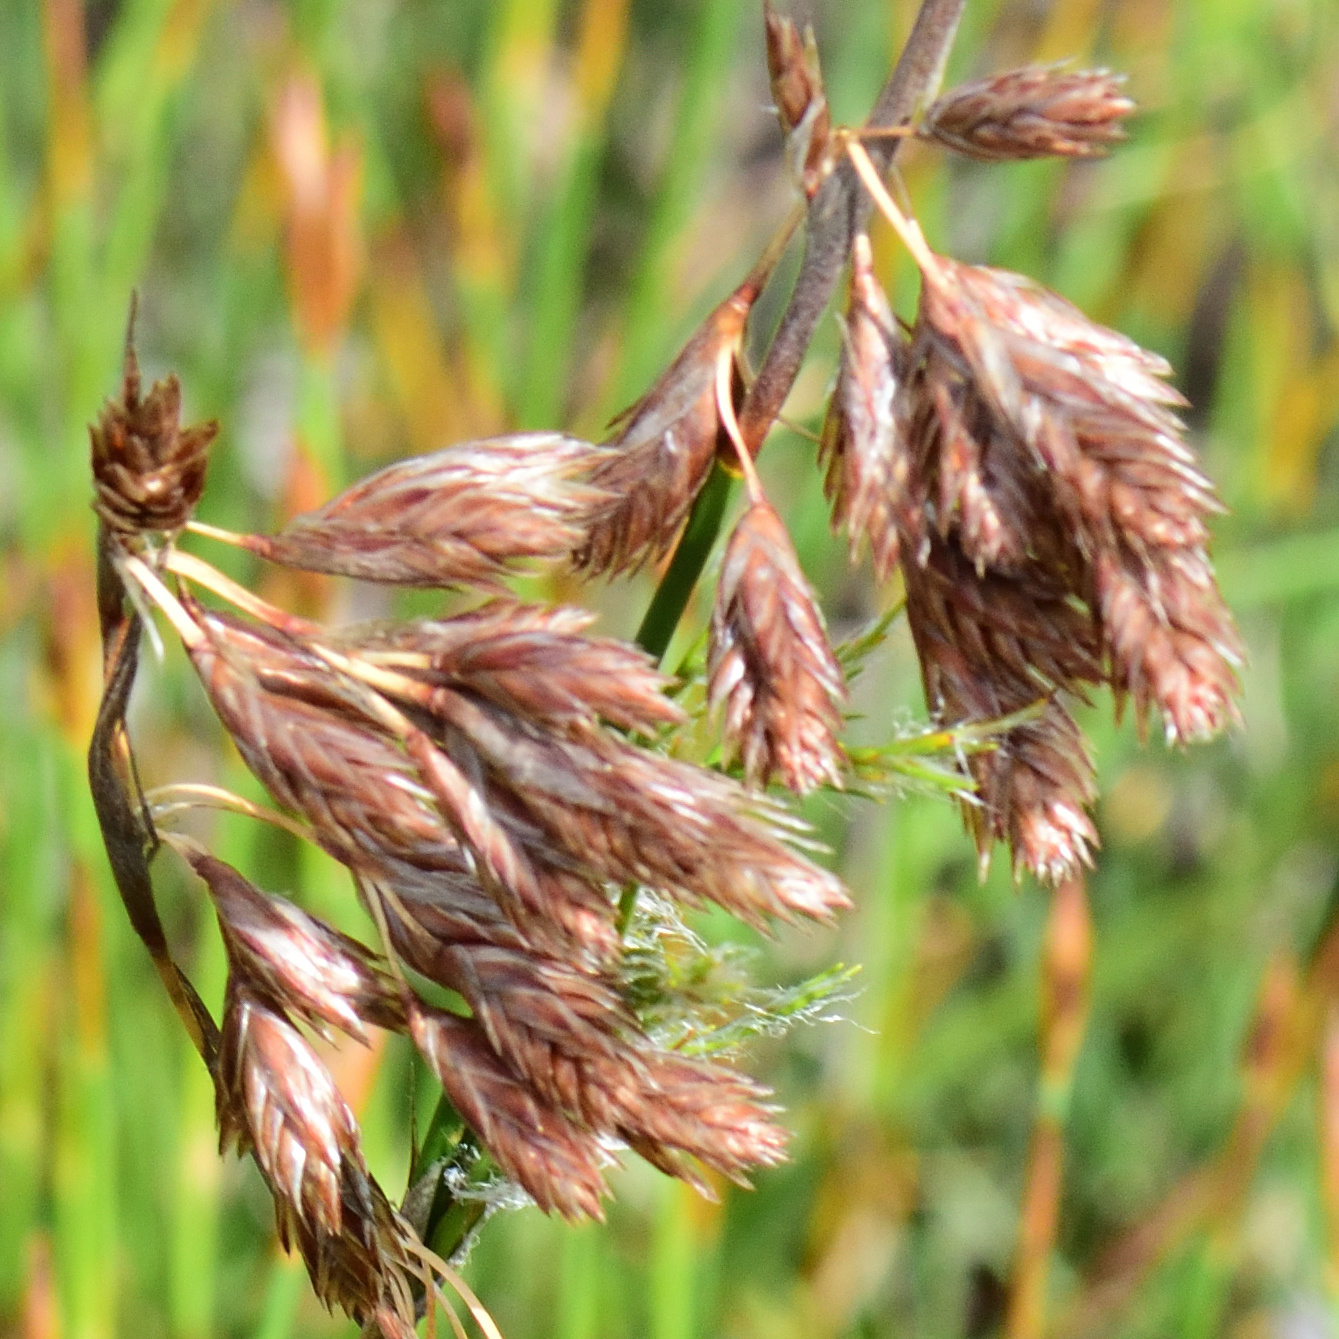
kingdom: Plantae
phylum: Tracheophyta
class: Liliopsida
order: Poales
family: Restionaceae
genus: Thamnochortus
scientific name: Thamnochortus glaber
